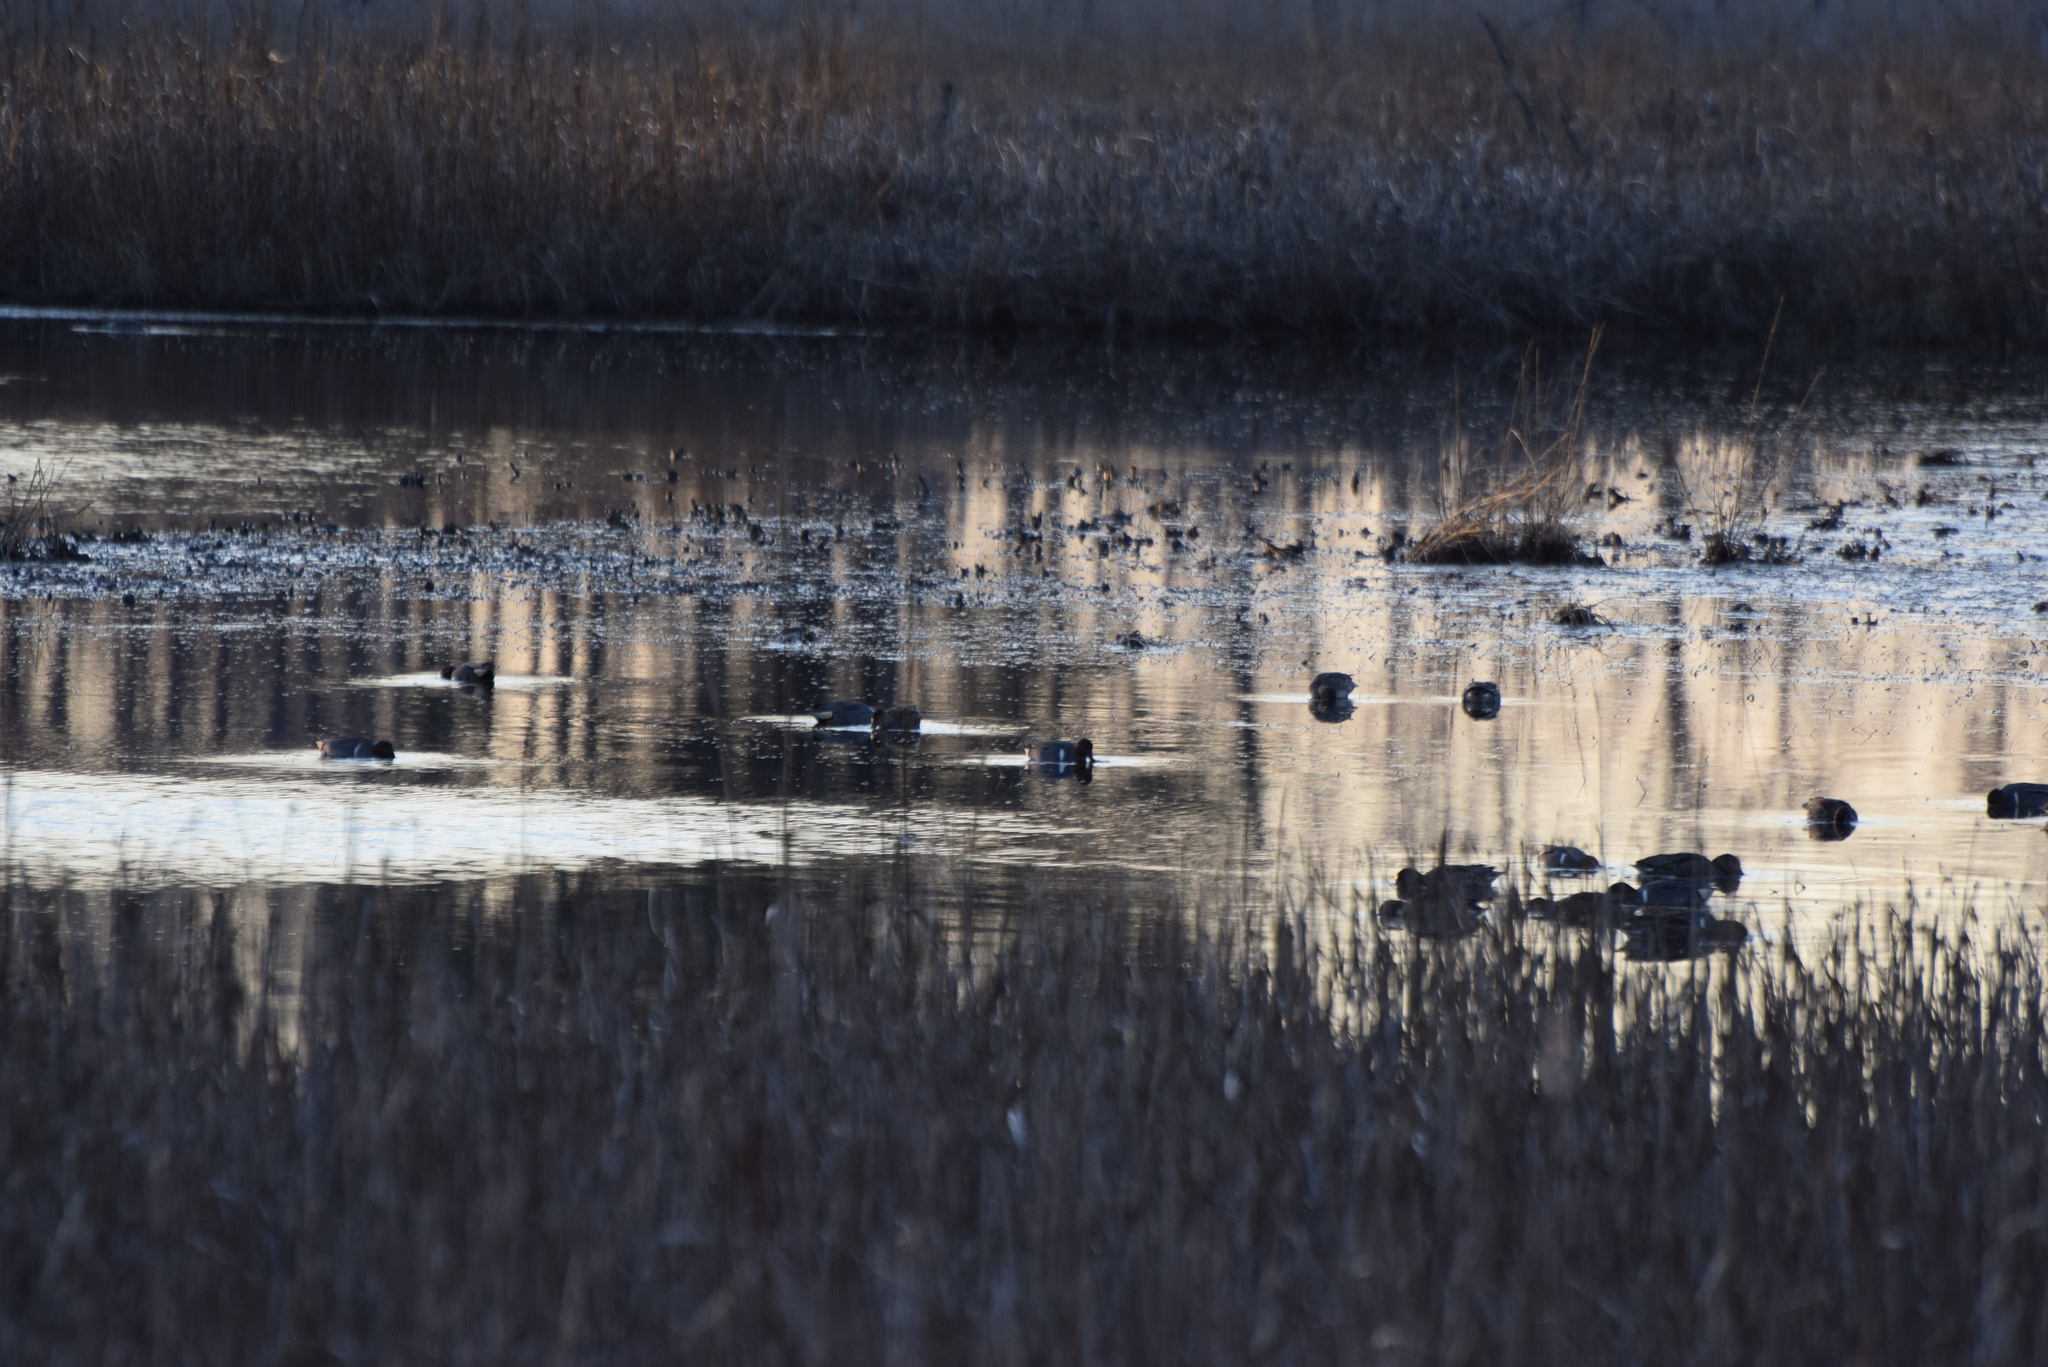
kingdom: Animalia
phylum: Chordata
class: Aves
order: Anseriformes
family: Anatidae
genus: Anas
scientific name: Anas crecca
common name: Eurasian teal
